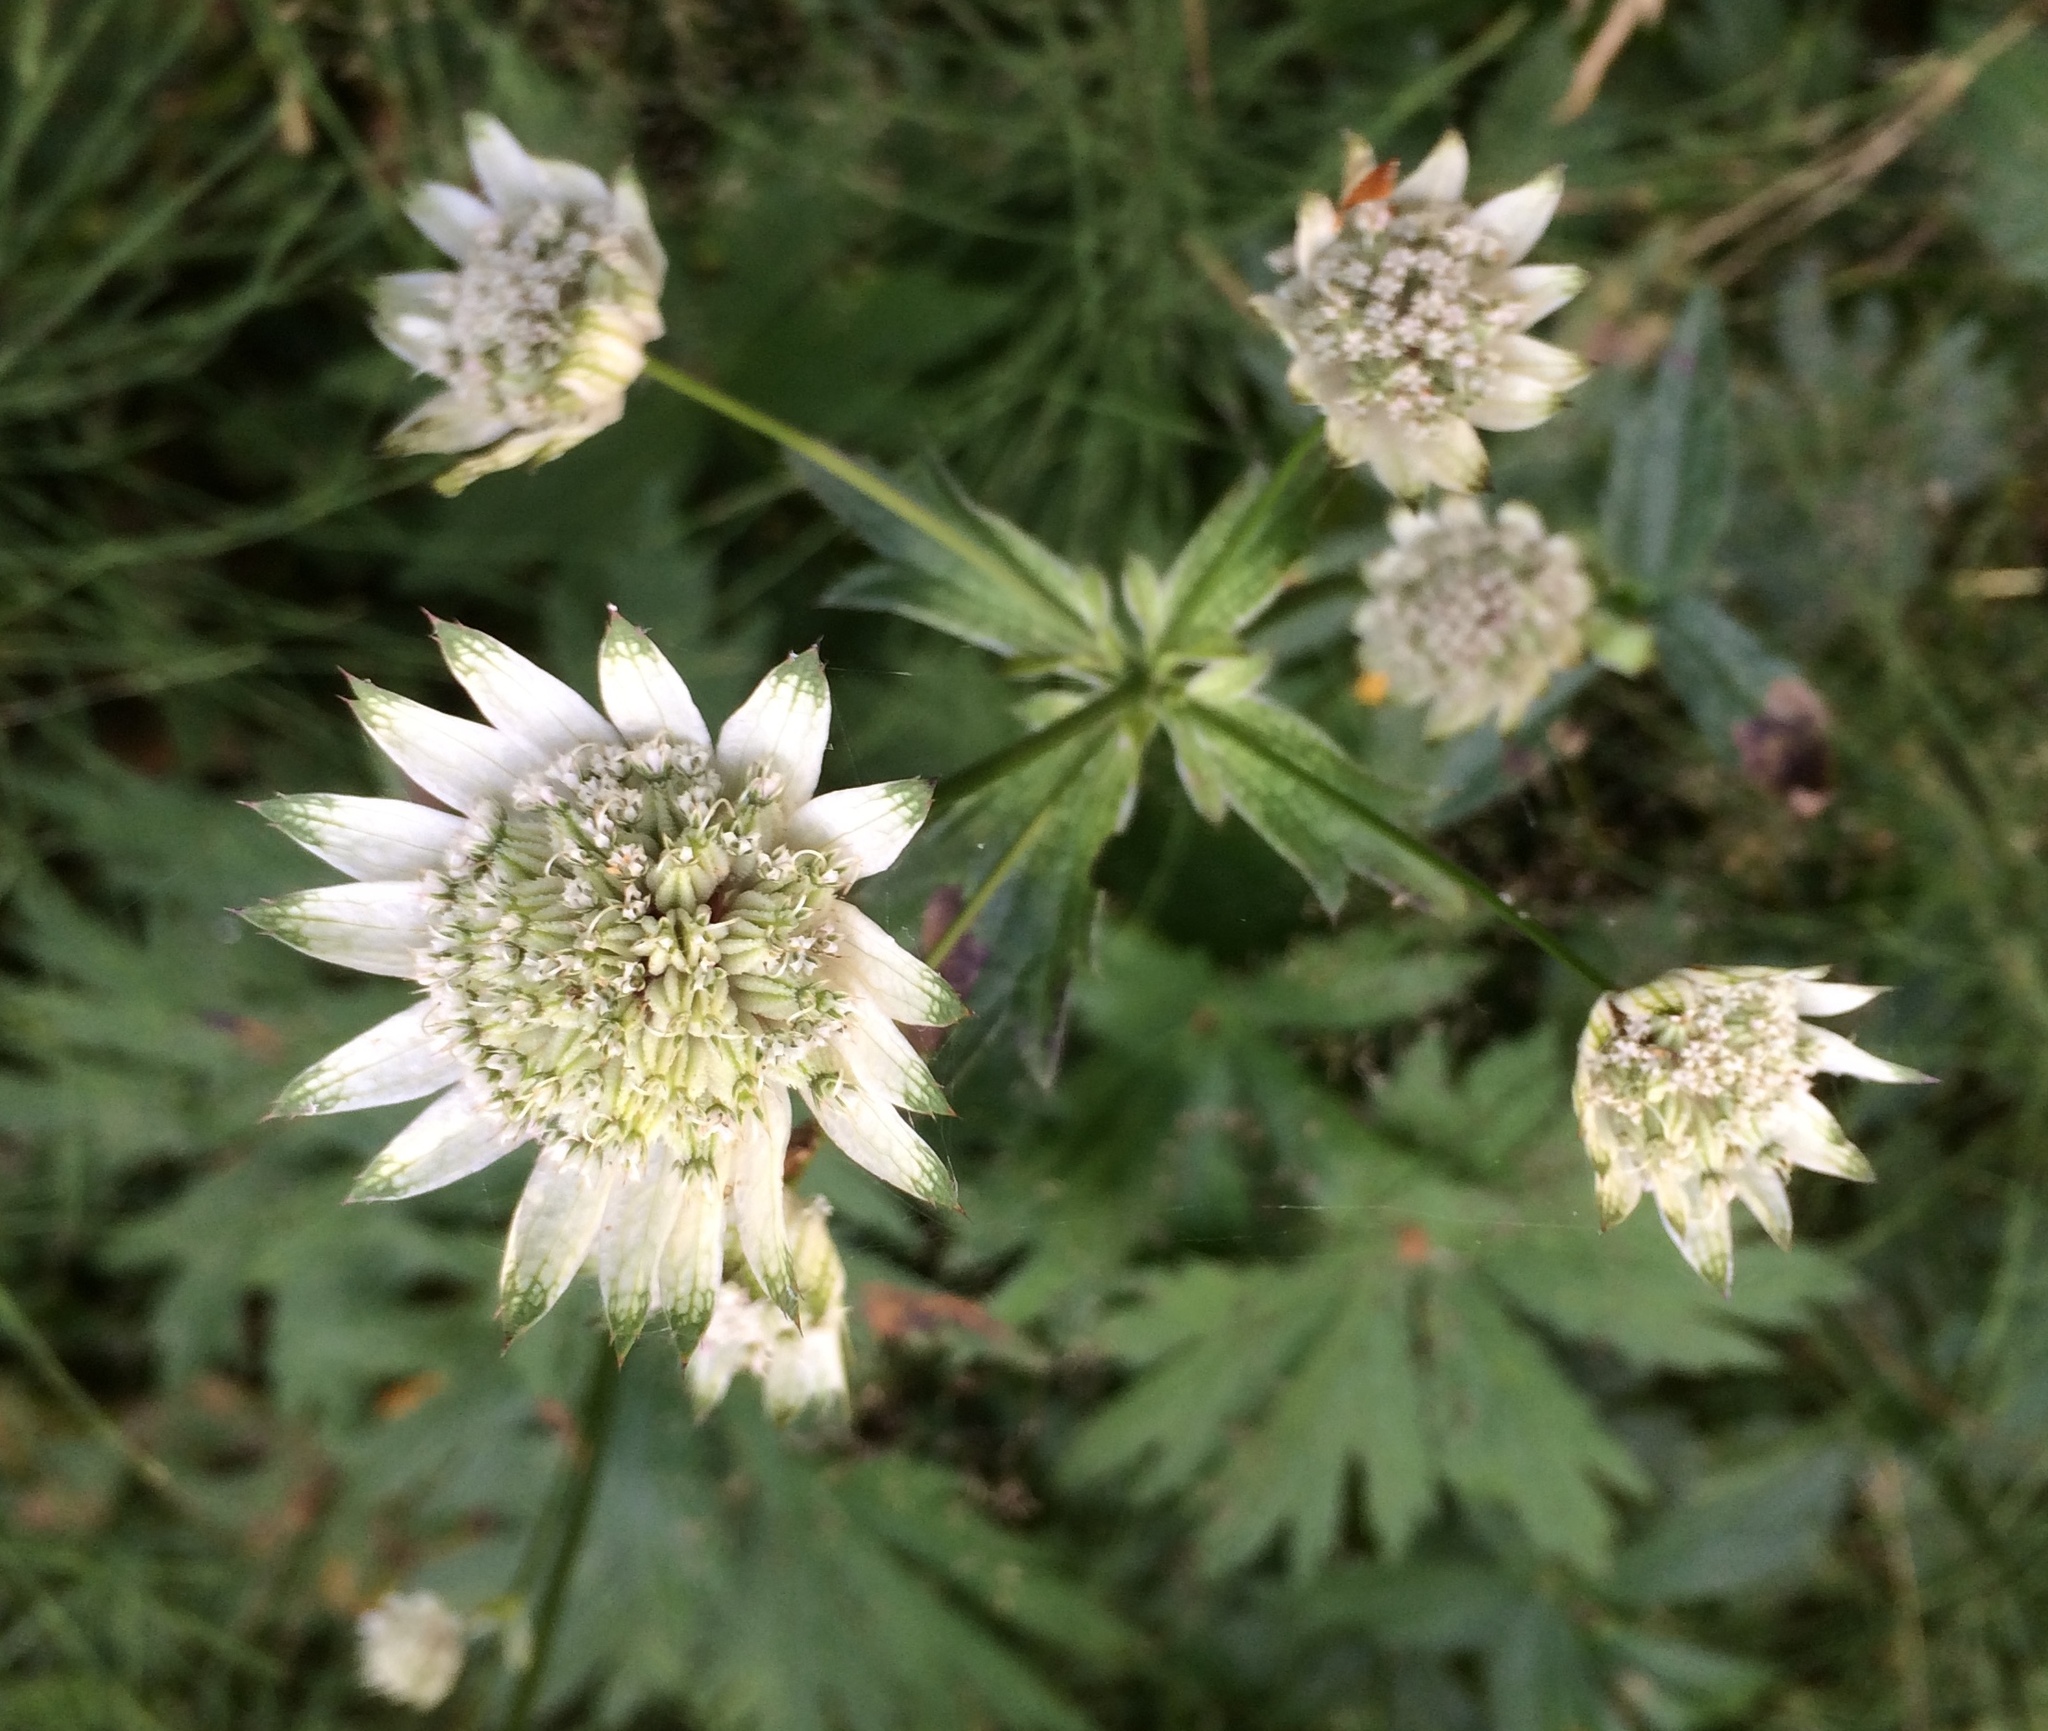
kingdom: Plantae
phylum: Tracheophyta
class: Magnoliopsida
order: Apiales
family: Apiaceae
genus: Astrantia
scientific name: Astrantia major
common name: Greater masterwort
